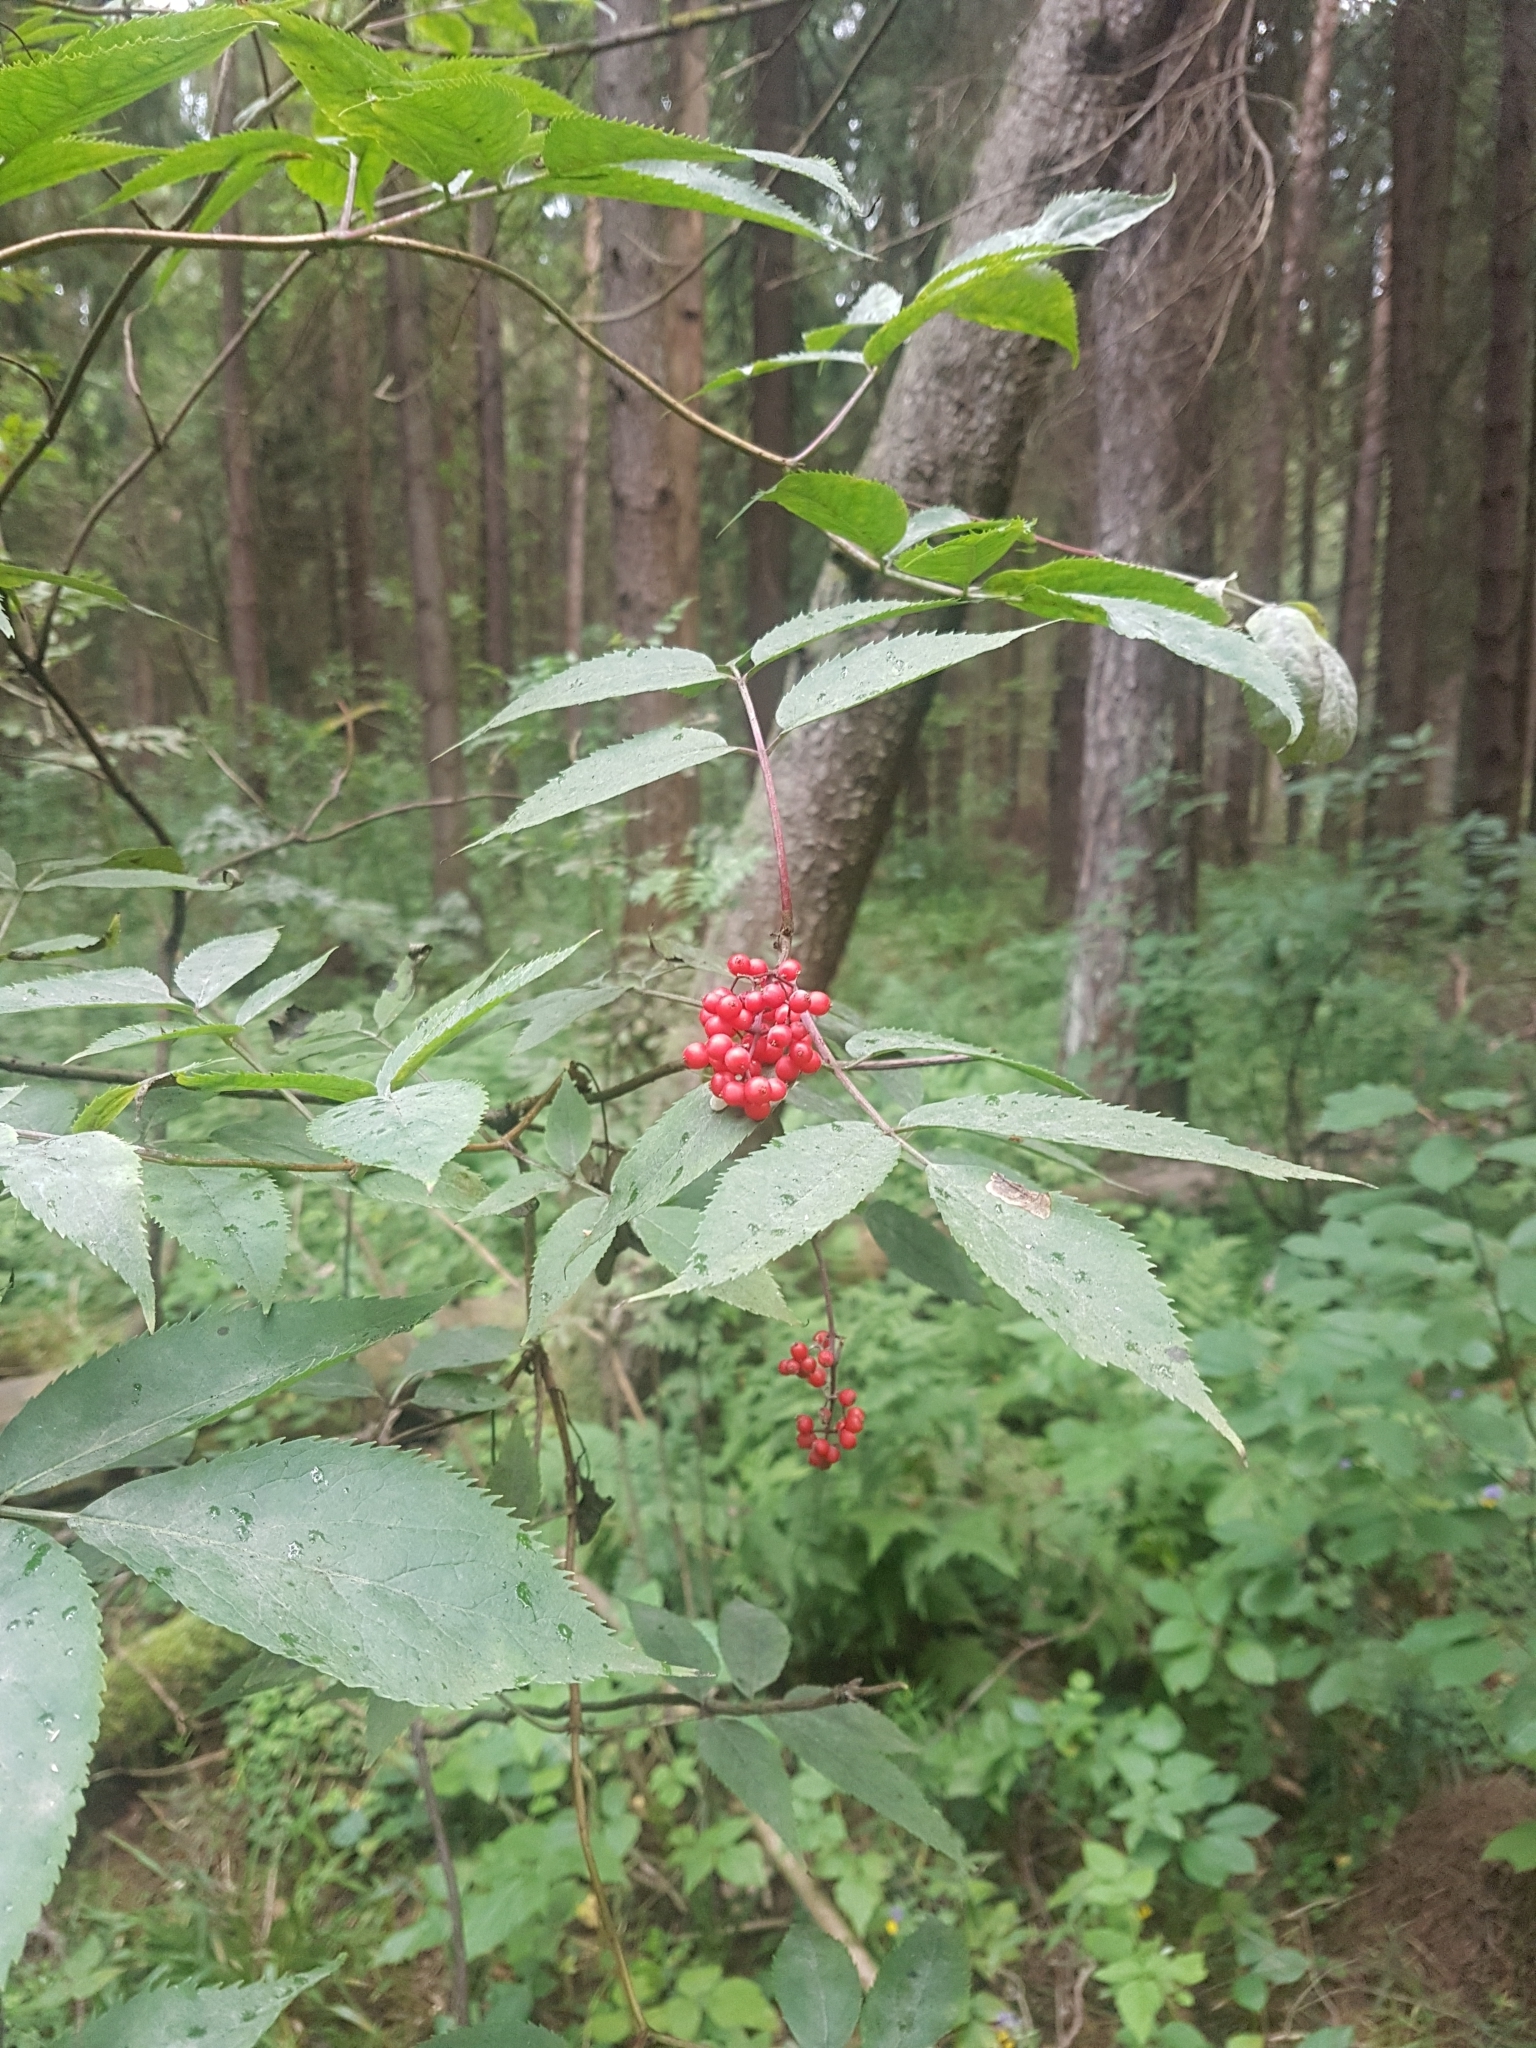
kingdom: Plantae
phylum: Tracheophyta
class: Magnoliopsida
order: Dipsacales
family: Viburnaceae
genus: Sambucus
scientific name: Sambucus racemosa
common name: Red-berried elder
